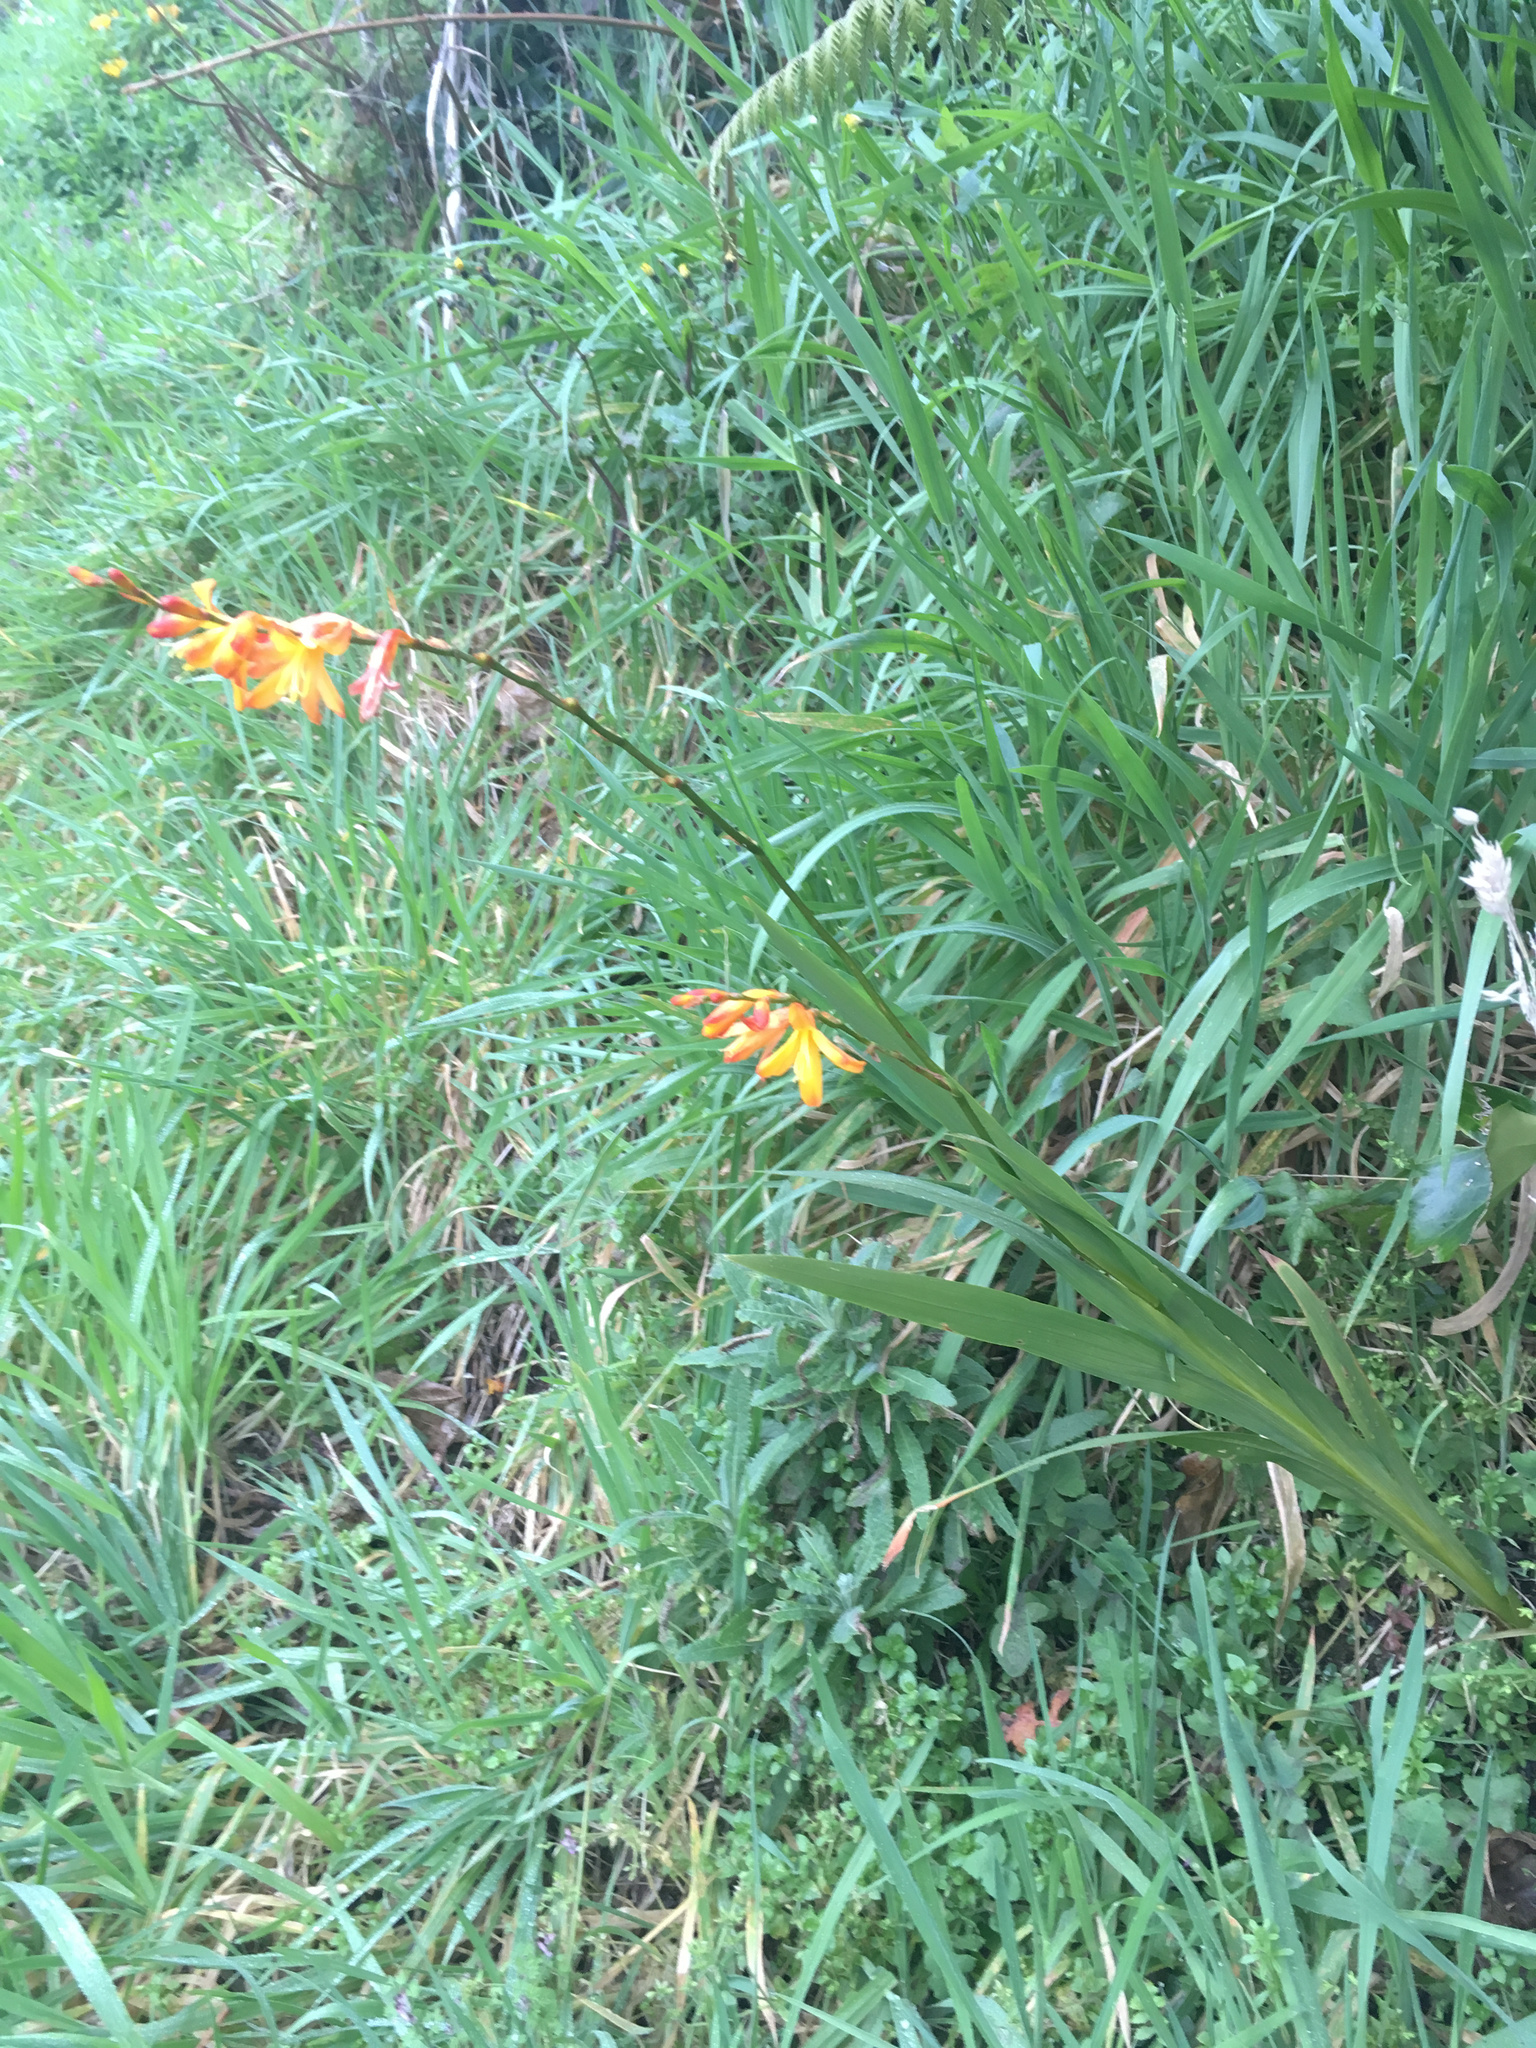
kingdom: Plantae
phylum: Tracheophyta
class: Liliopsida
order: Asparagales
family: Iridaceae
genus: Crocosmia
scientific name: Crocosmia crocosmiiflora
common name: Montbretia
